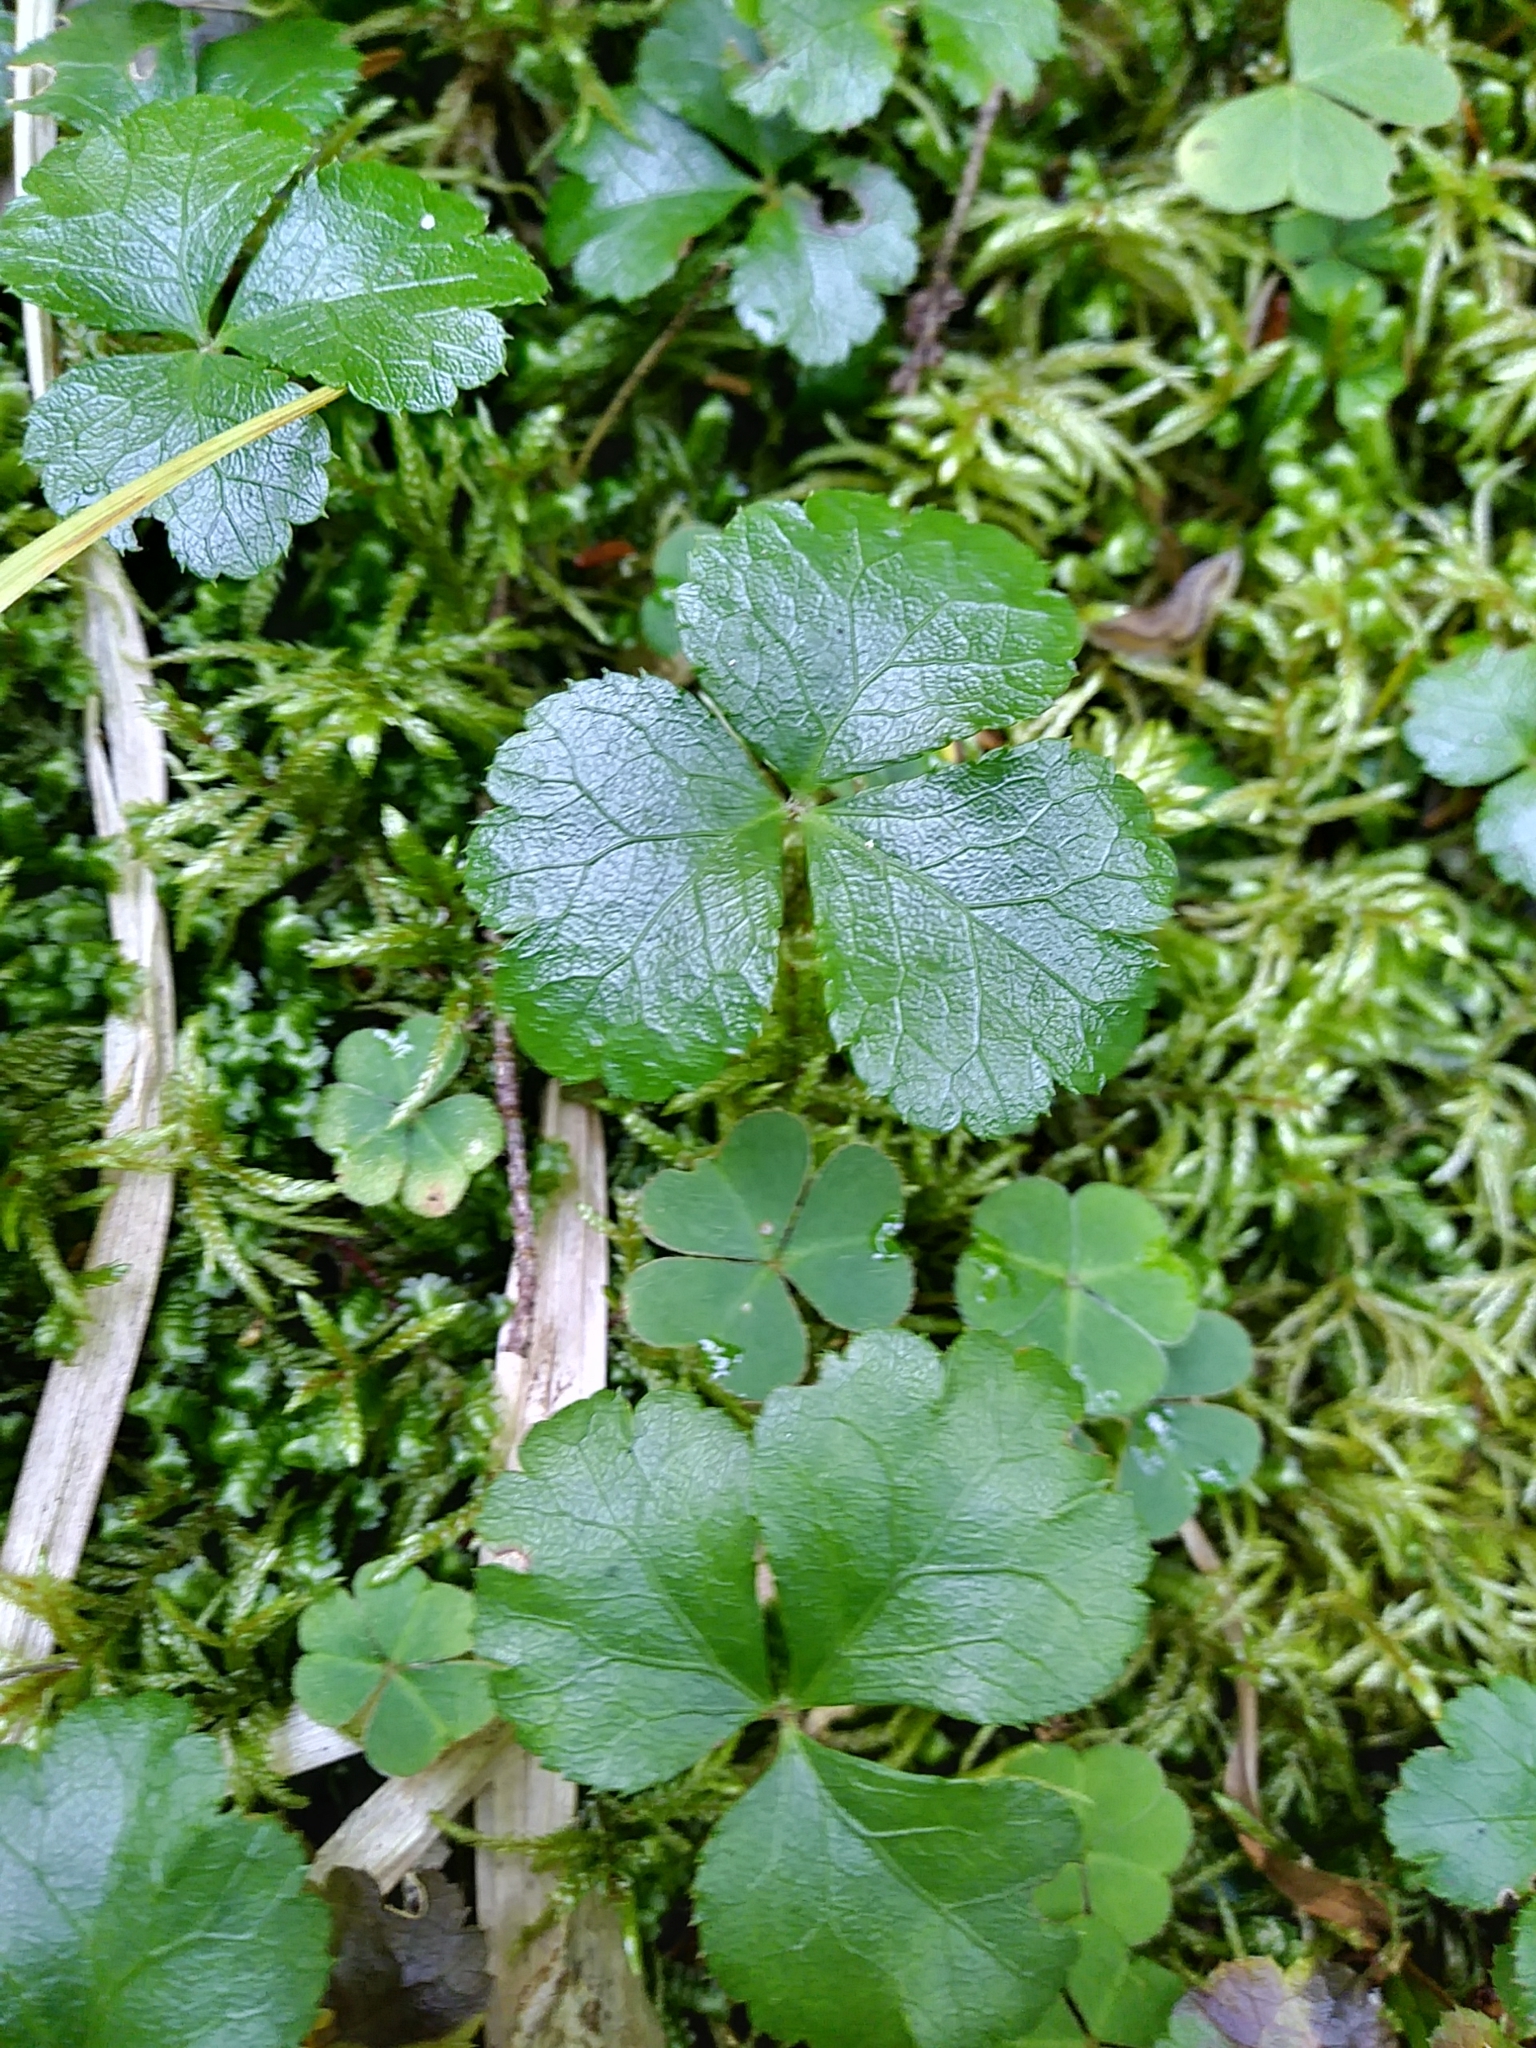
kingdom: Plantae
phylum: Tracheophyta
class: Magnoliopsida
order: Ranunculales
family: Ranunculaceae
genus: Coptis
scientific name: Coptis trifolia
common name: Canker-root
